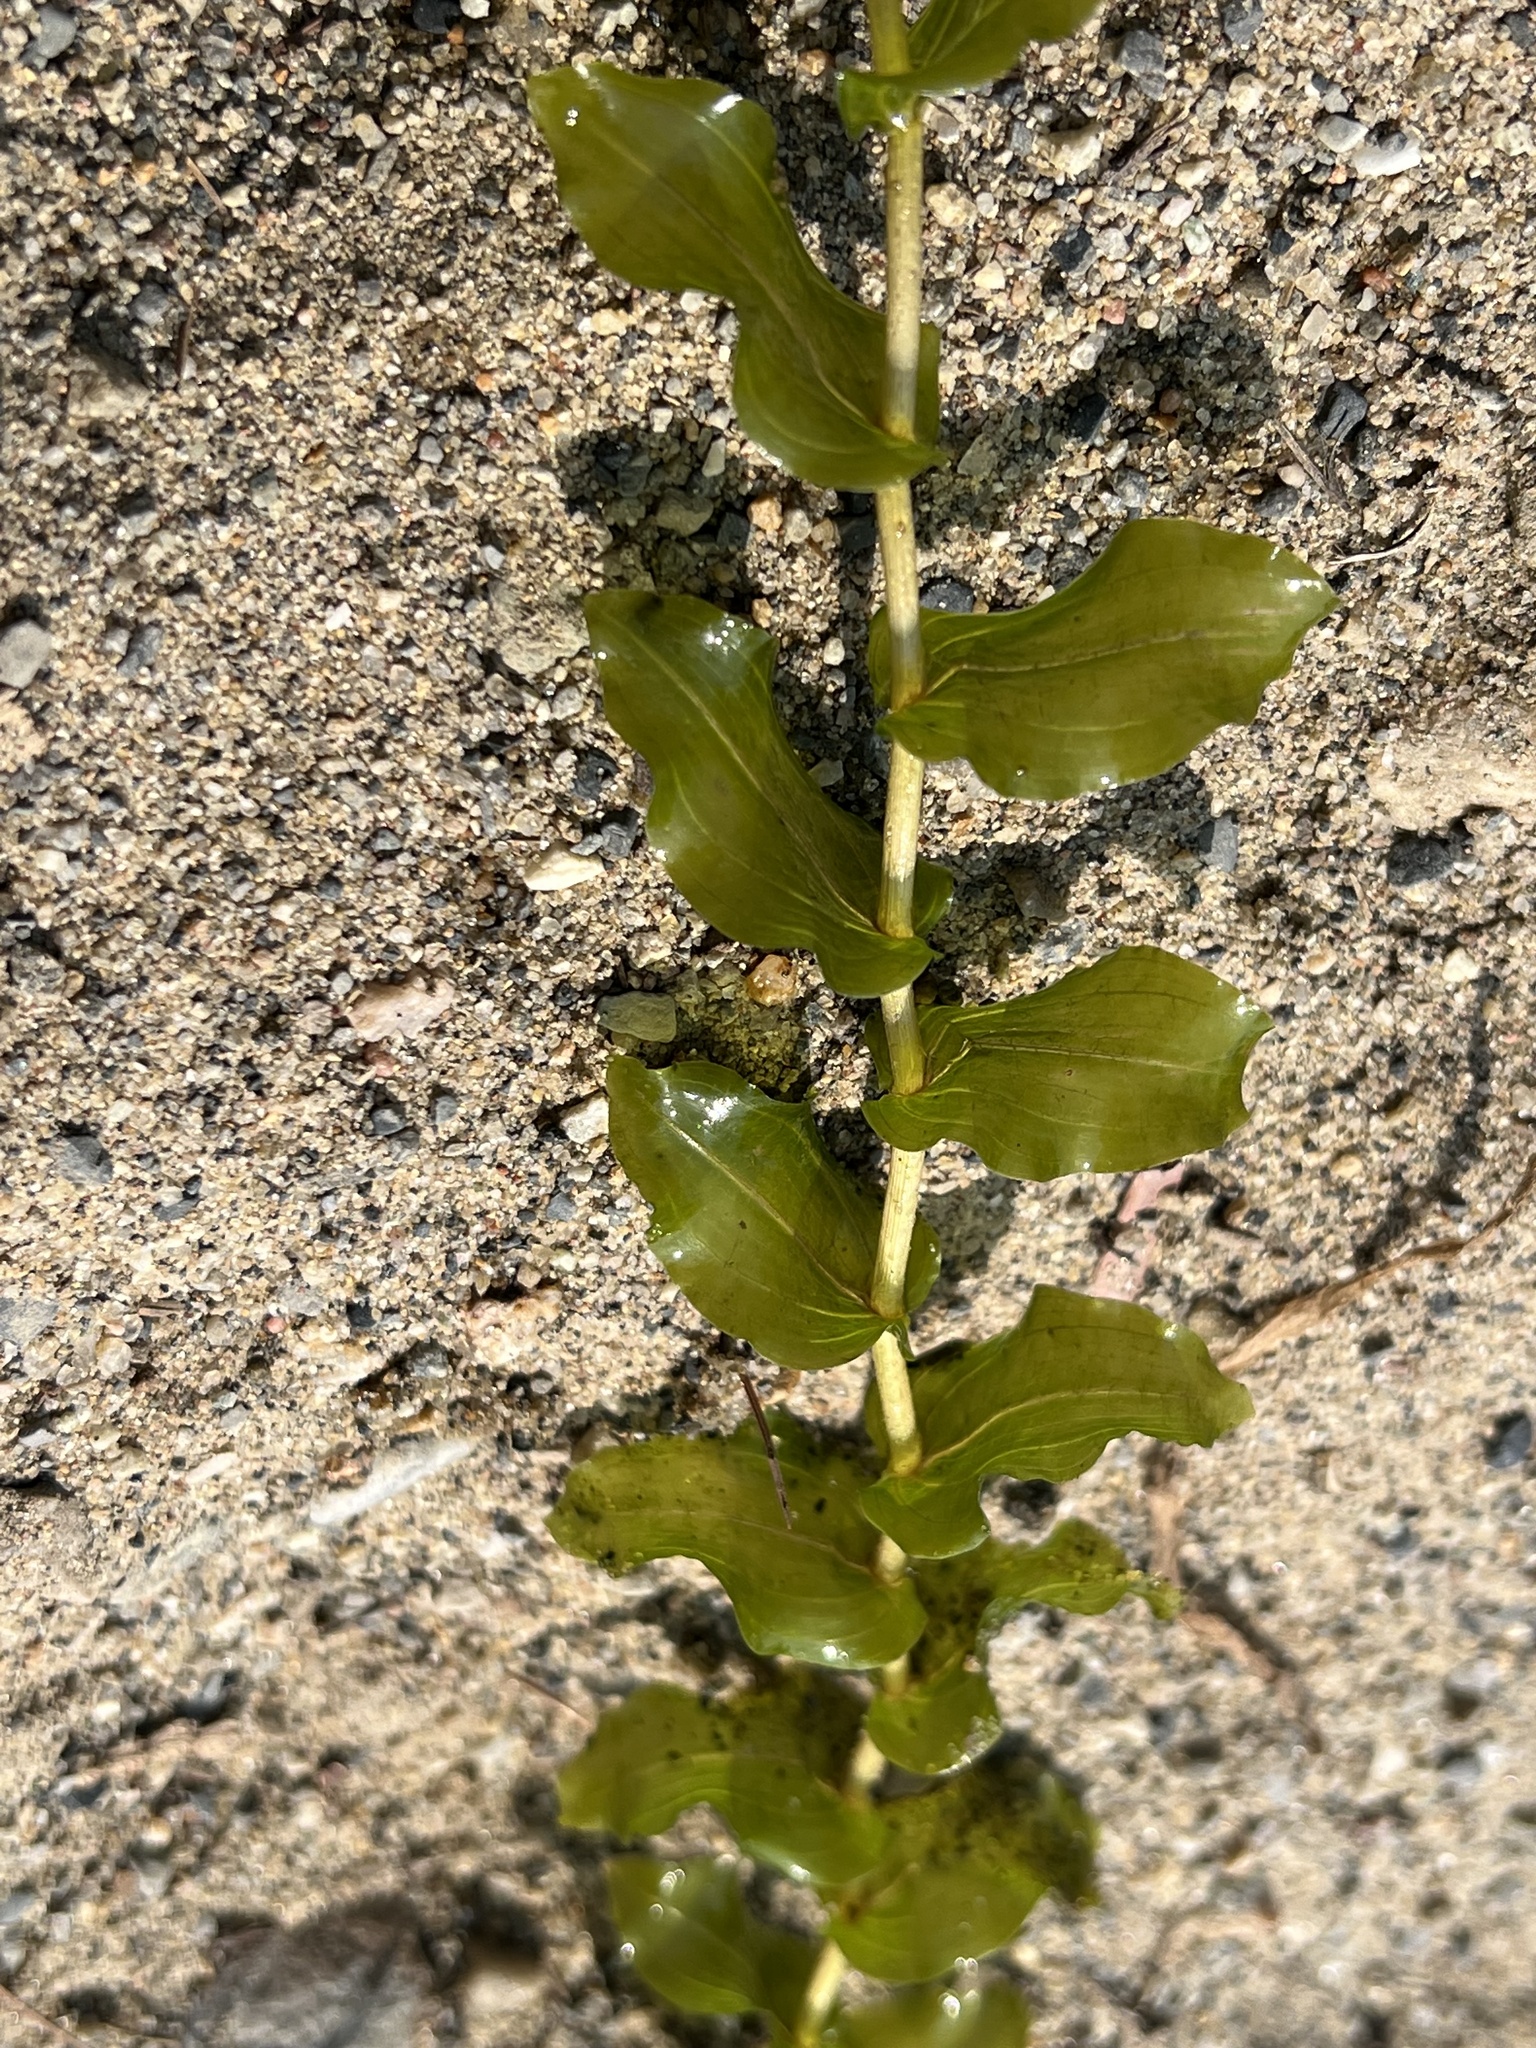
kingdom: Plantae
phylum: Tracheophyta
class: Liliopsida
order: Alismatales
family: Potamogetonaceae
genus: Potamogeton
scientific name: Potamogeton richardsonii
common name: Richardson's pondweed
